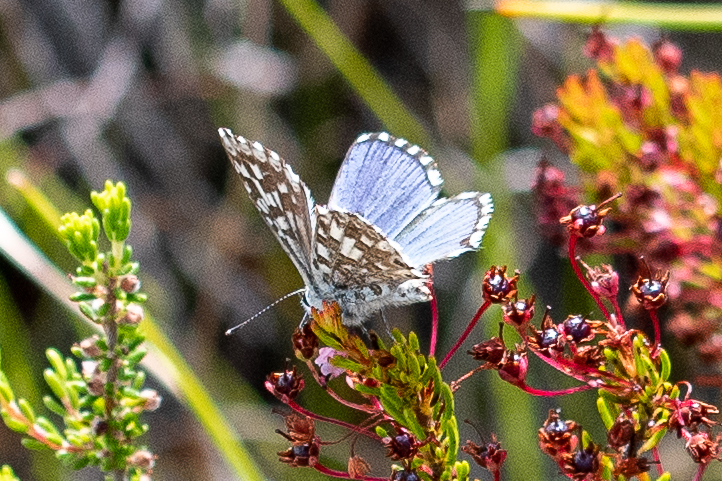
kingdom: Animalia
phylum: Arthropoda
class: Insecta
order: Lepidoptera
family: Lycaenidae
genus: Tarucus
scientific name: Tarucus thespis
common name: Vivid dotted blue
